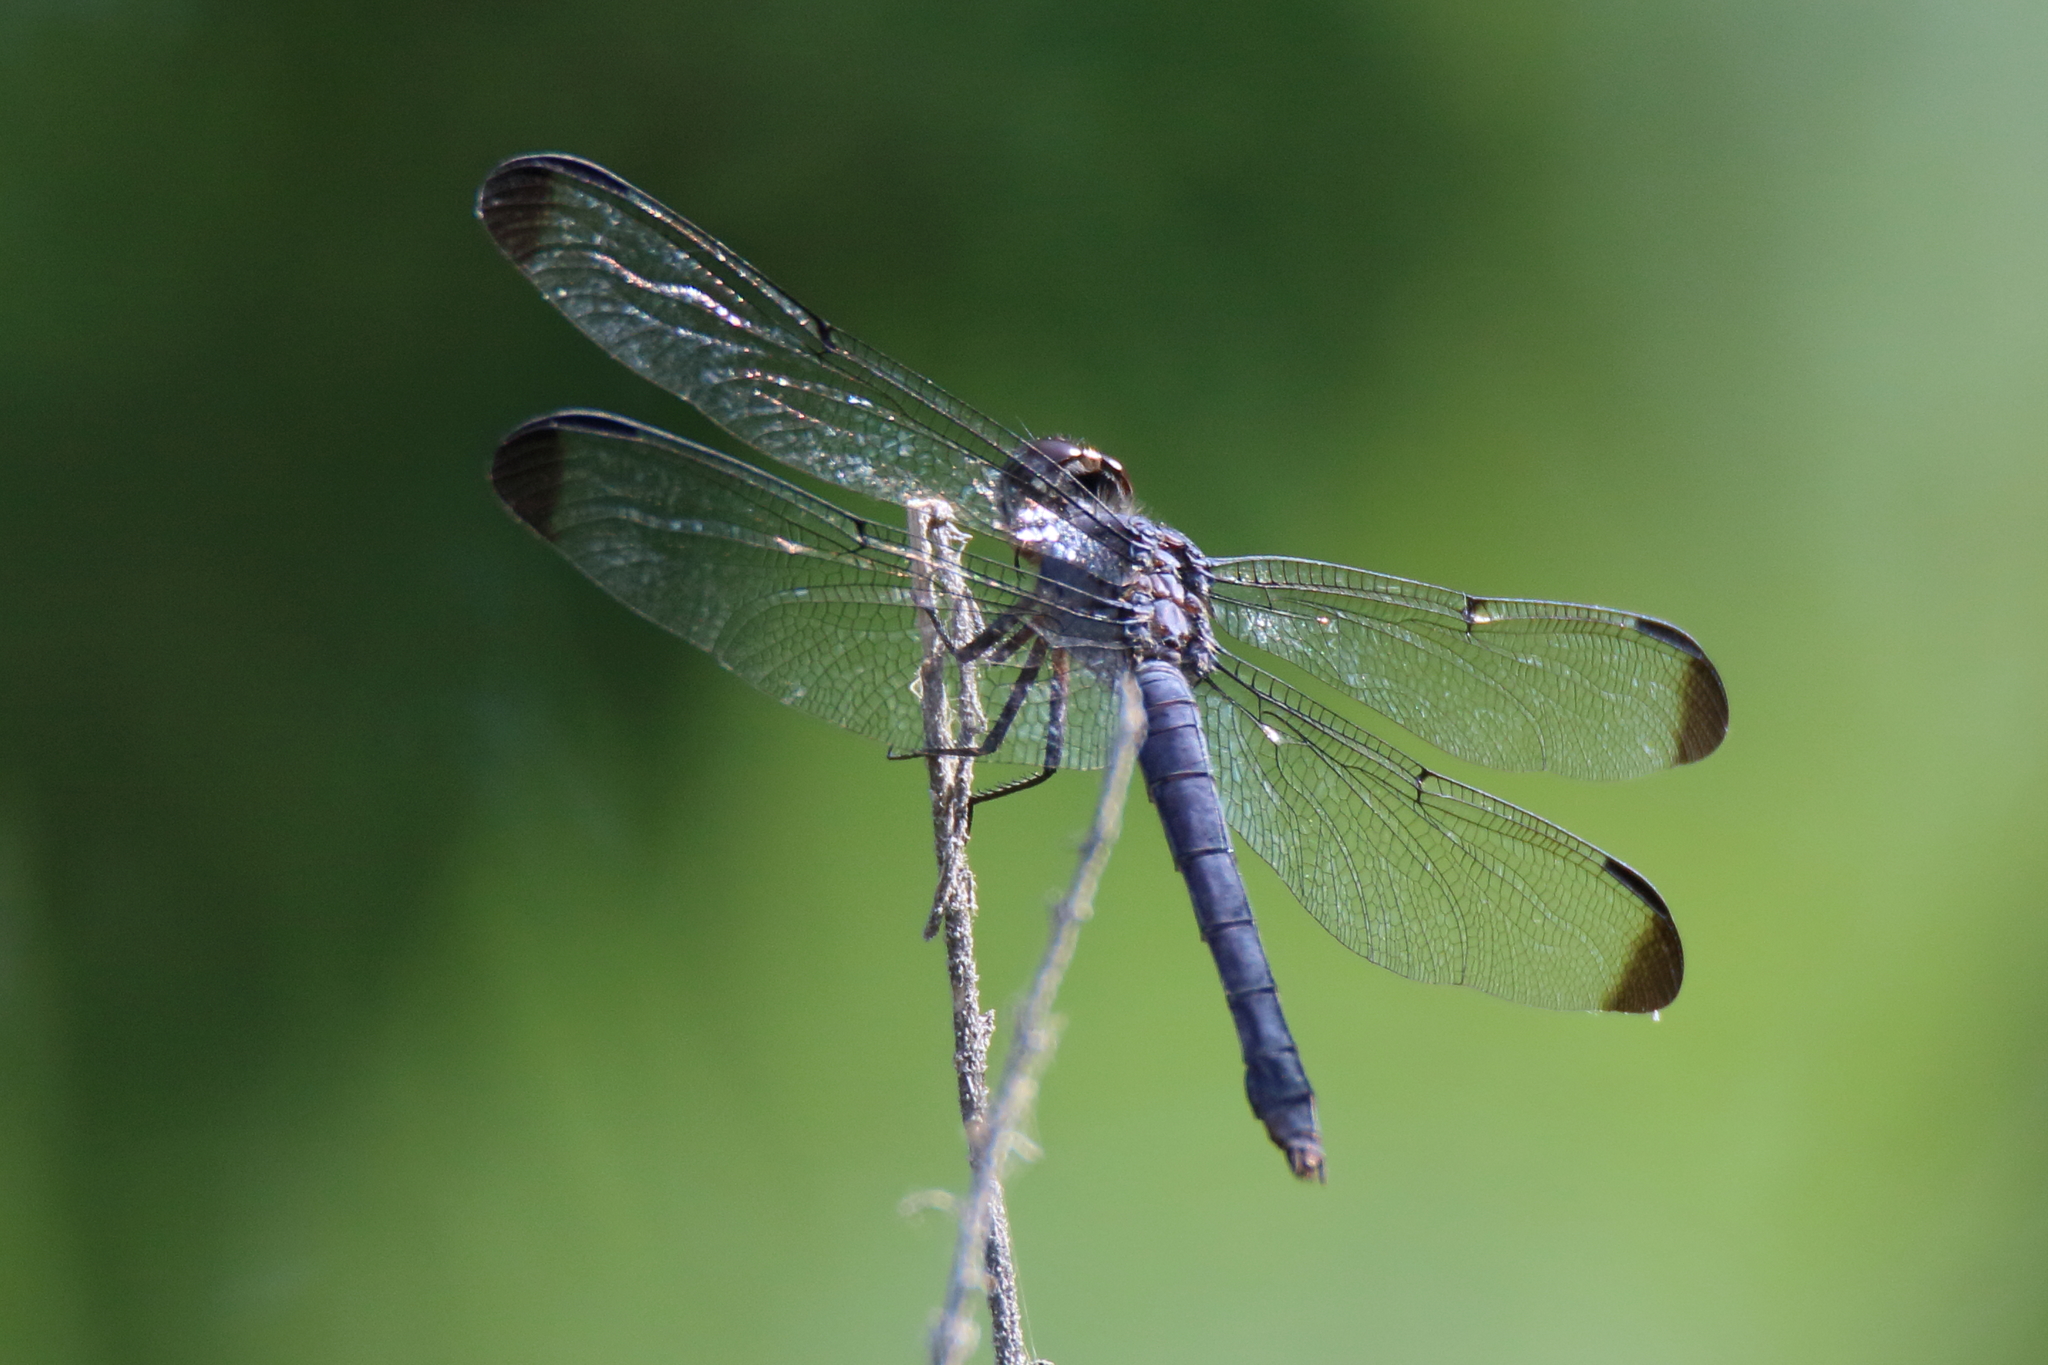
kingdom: Animalia
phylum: Arthropoda
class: Insecta
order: Odonata
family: Libellulidae
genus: Libellula
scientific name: Libellula incesta
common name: Slaty skimmer
